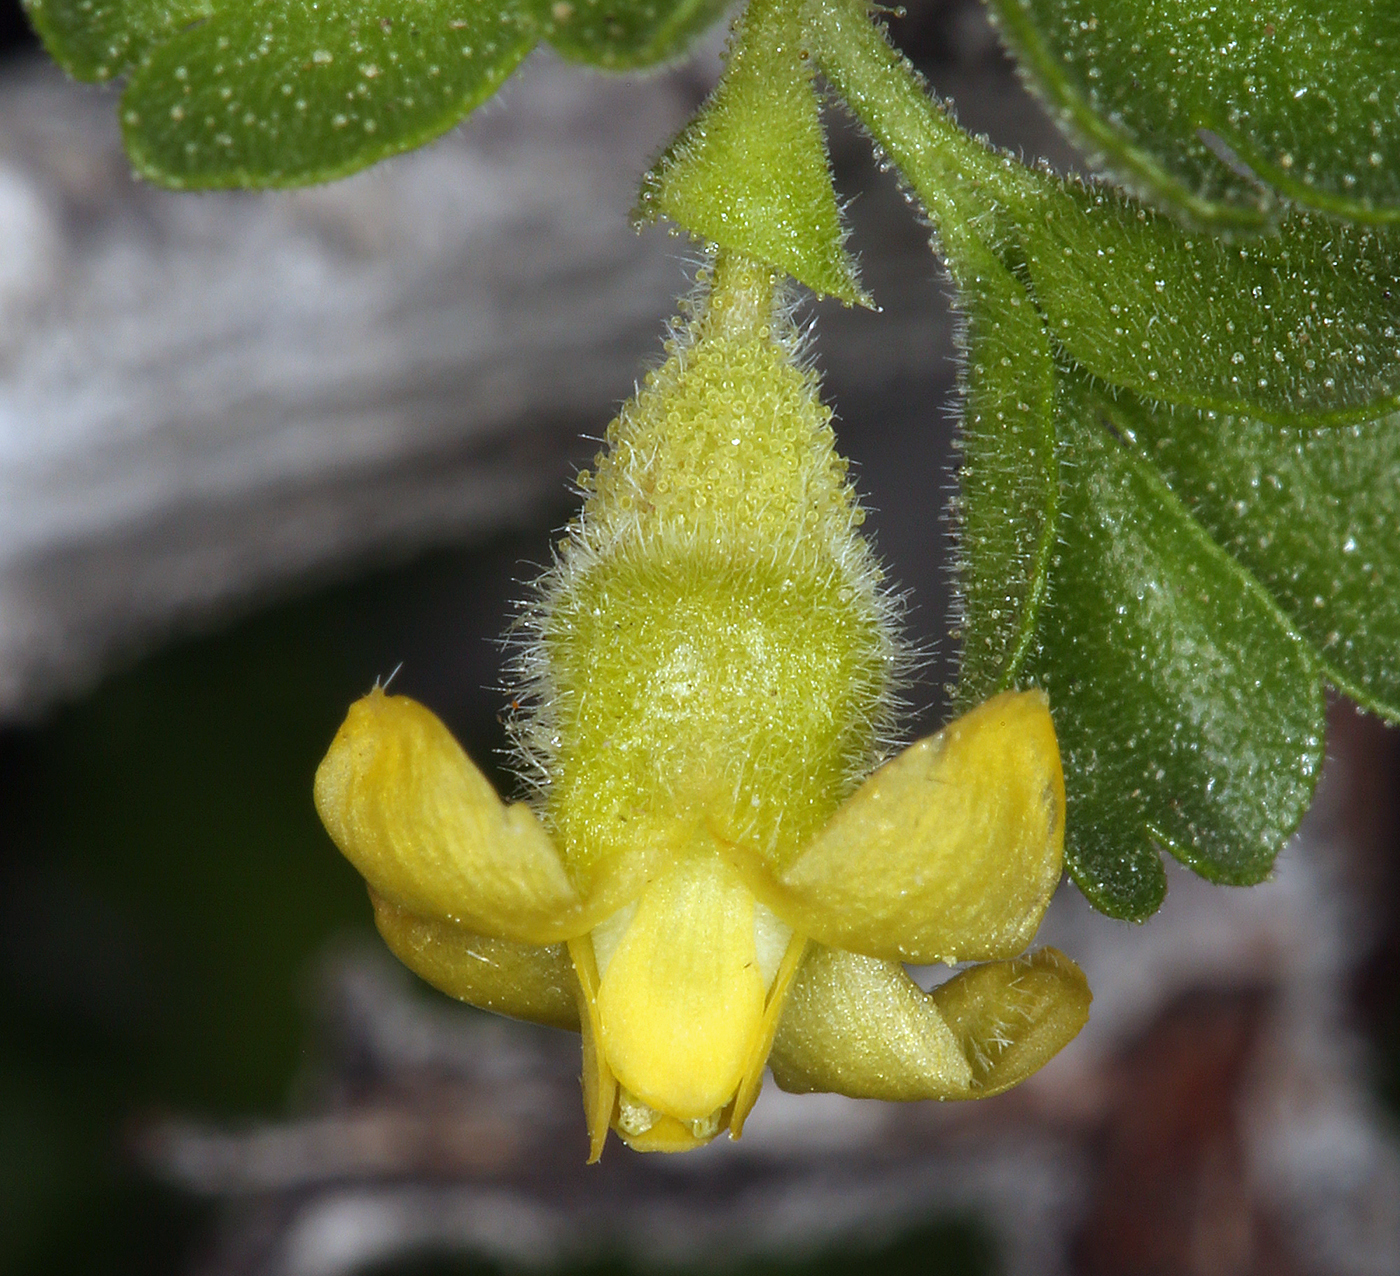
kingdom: Plantae
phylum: Tracheophyta
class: Magnoliopsida
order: Saxifragales
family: Grossulariaceae
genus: Ribes
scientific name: Ribes velutinum
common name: Desert gooseberry
